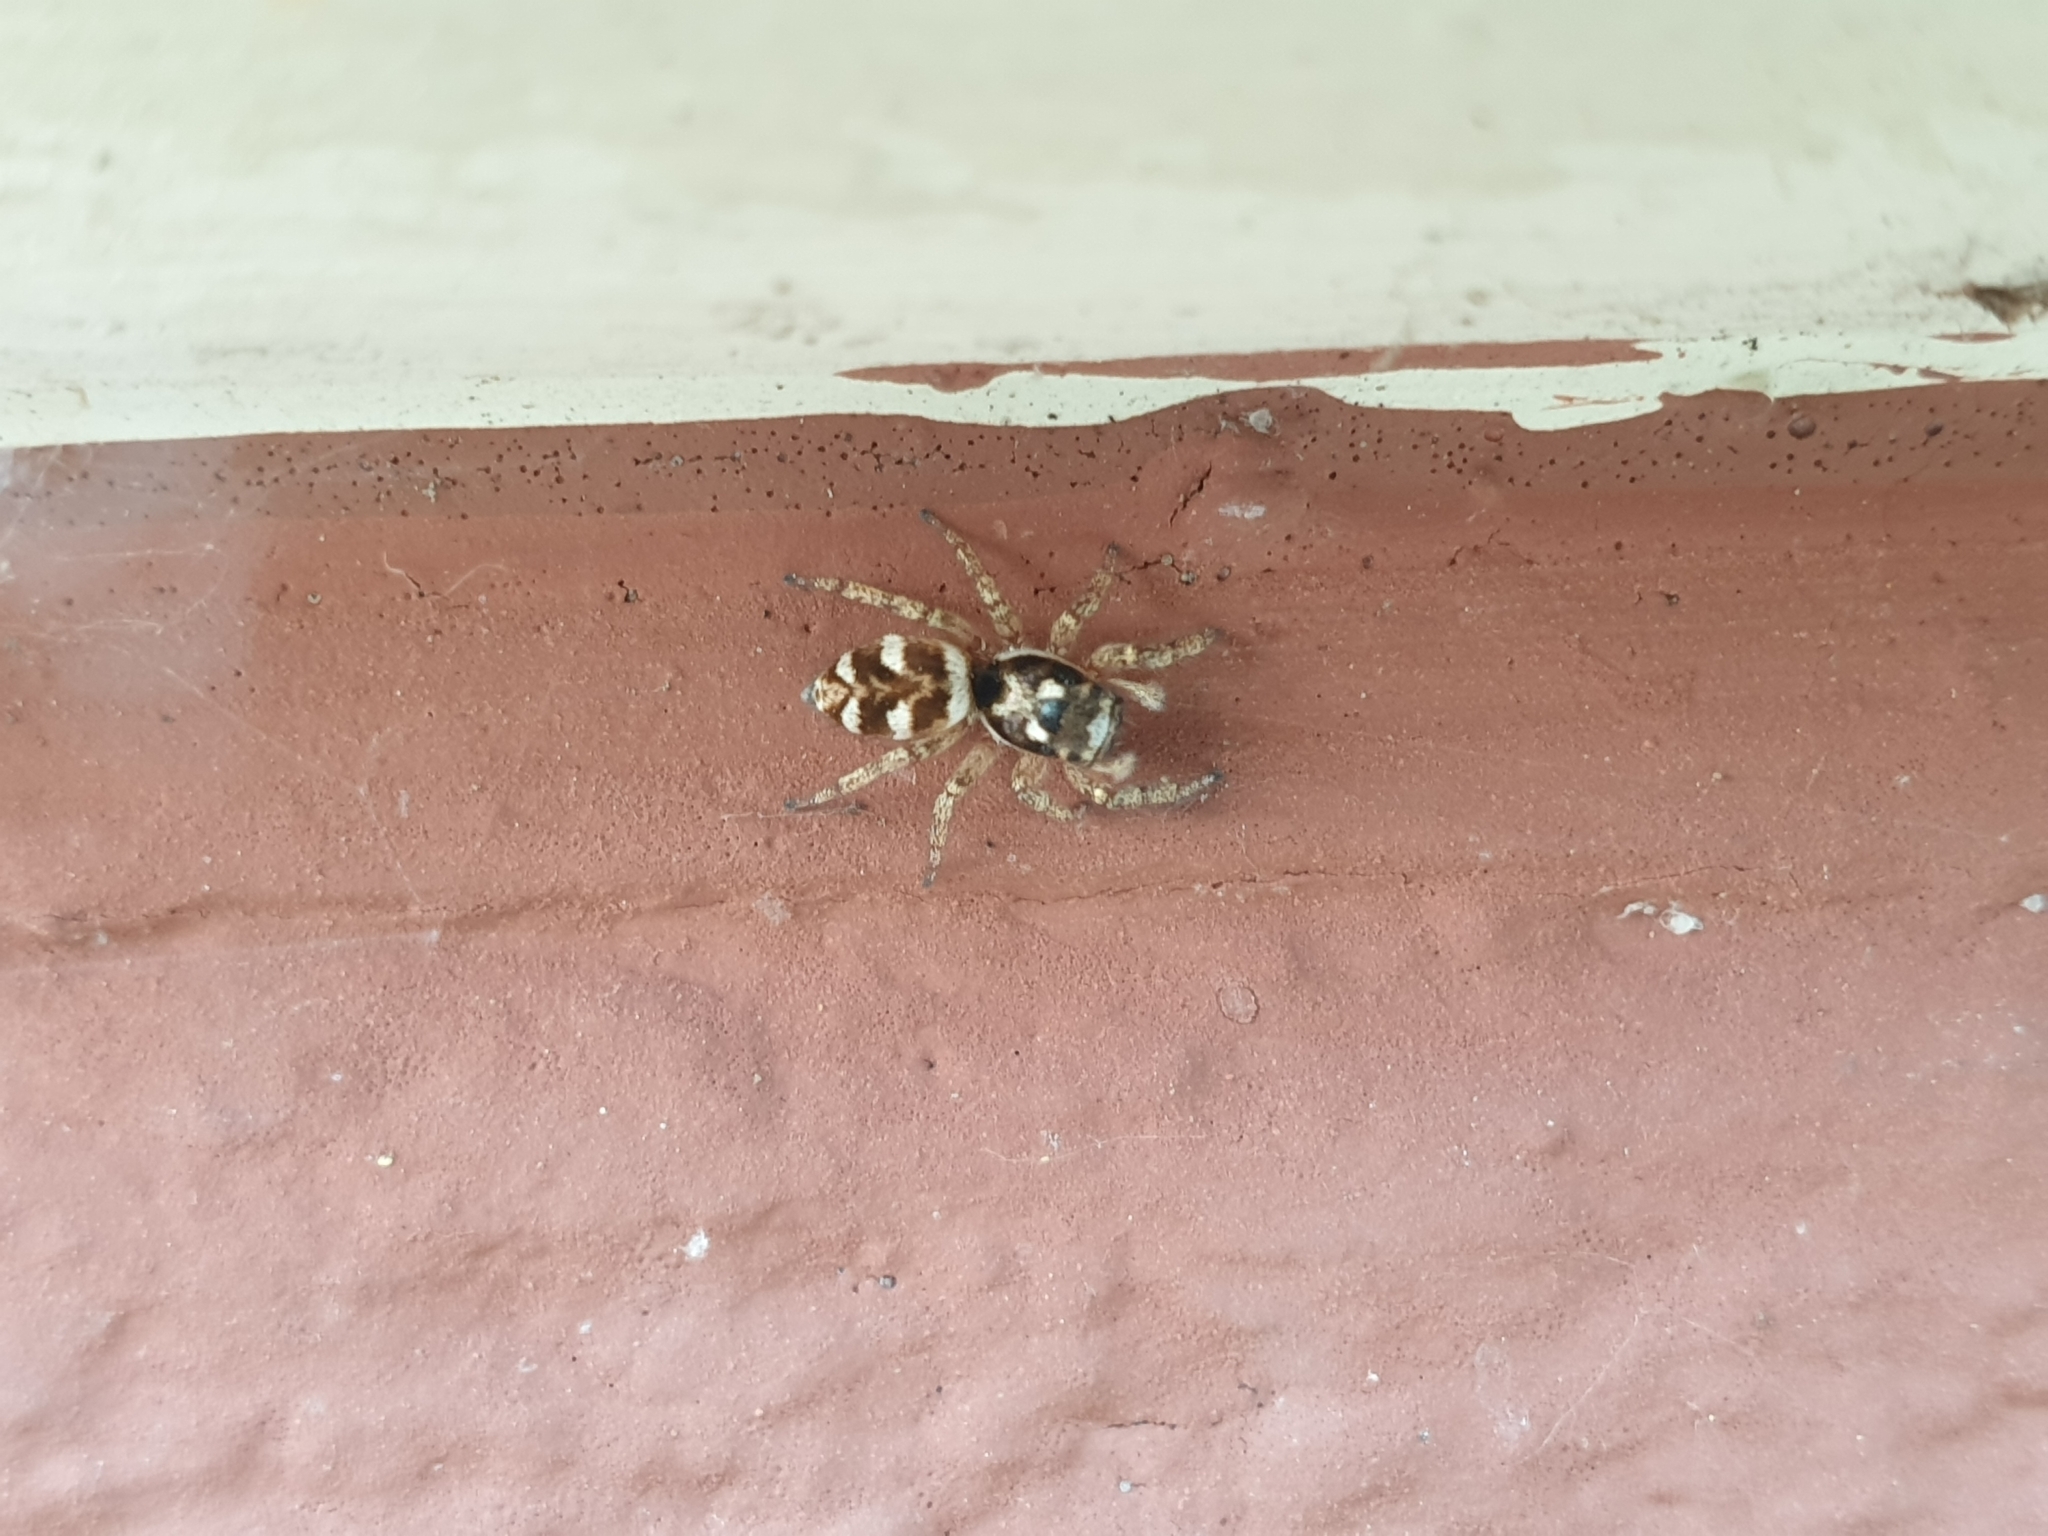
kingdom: Animalia
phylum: Arthropoda
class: Arachnida
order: Araneae
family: Salticidae
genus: Salticus
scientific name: Salticus scenicus
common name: Zebra jumper
